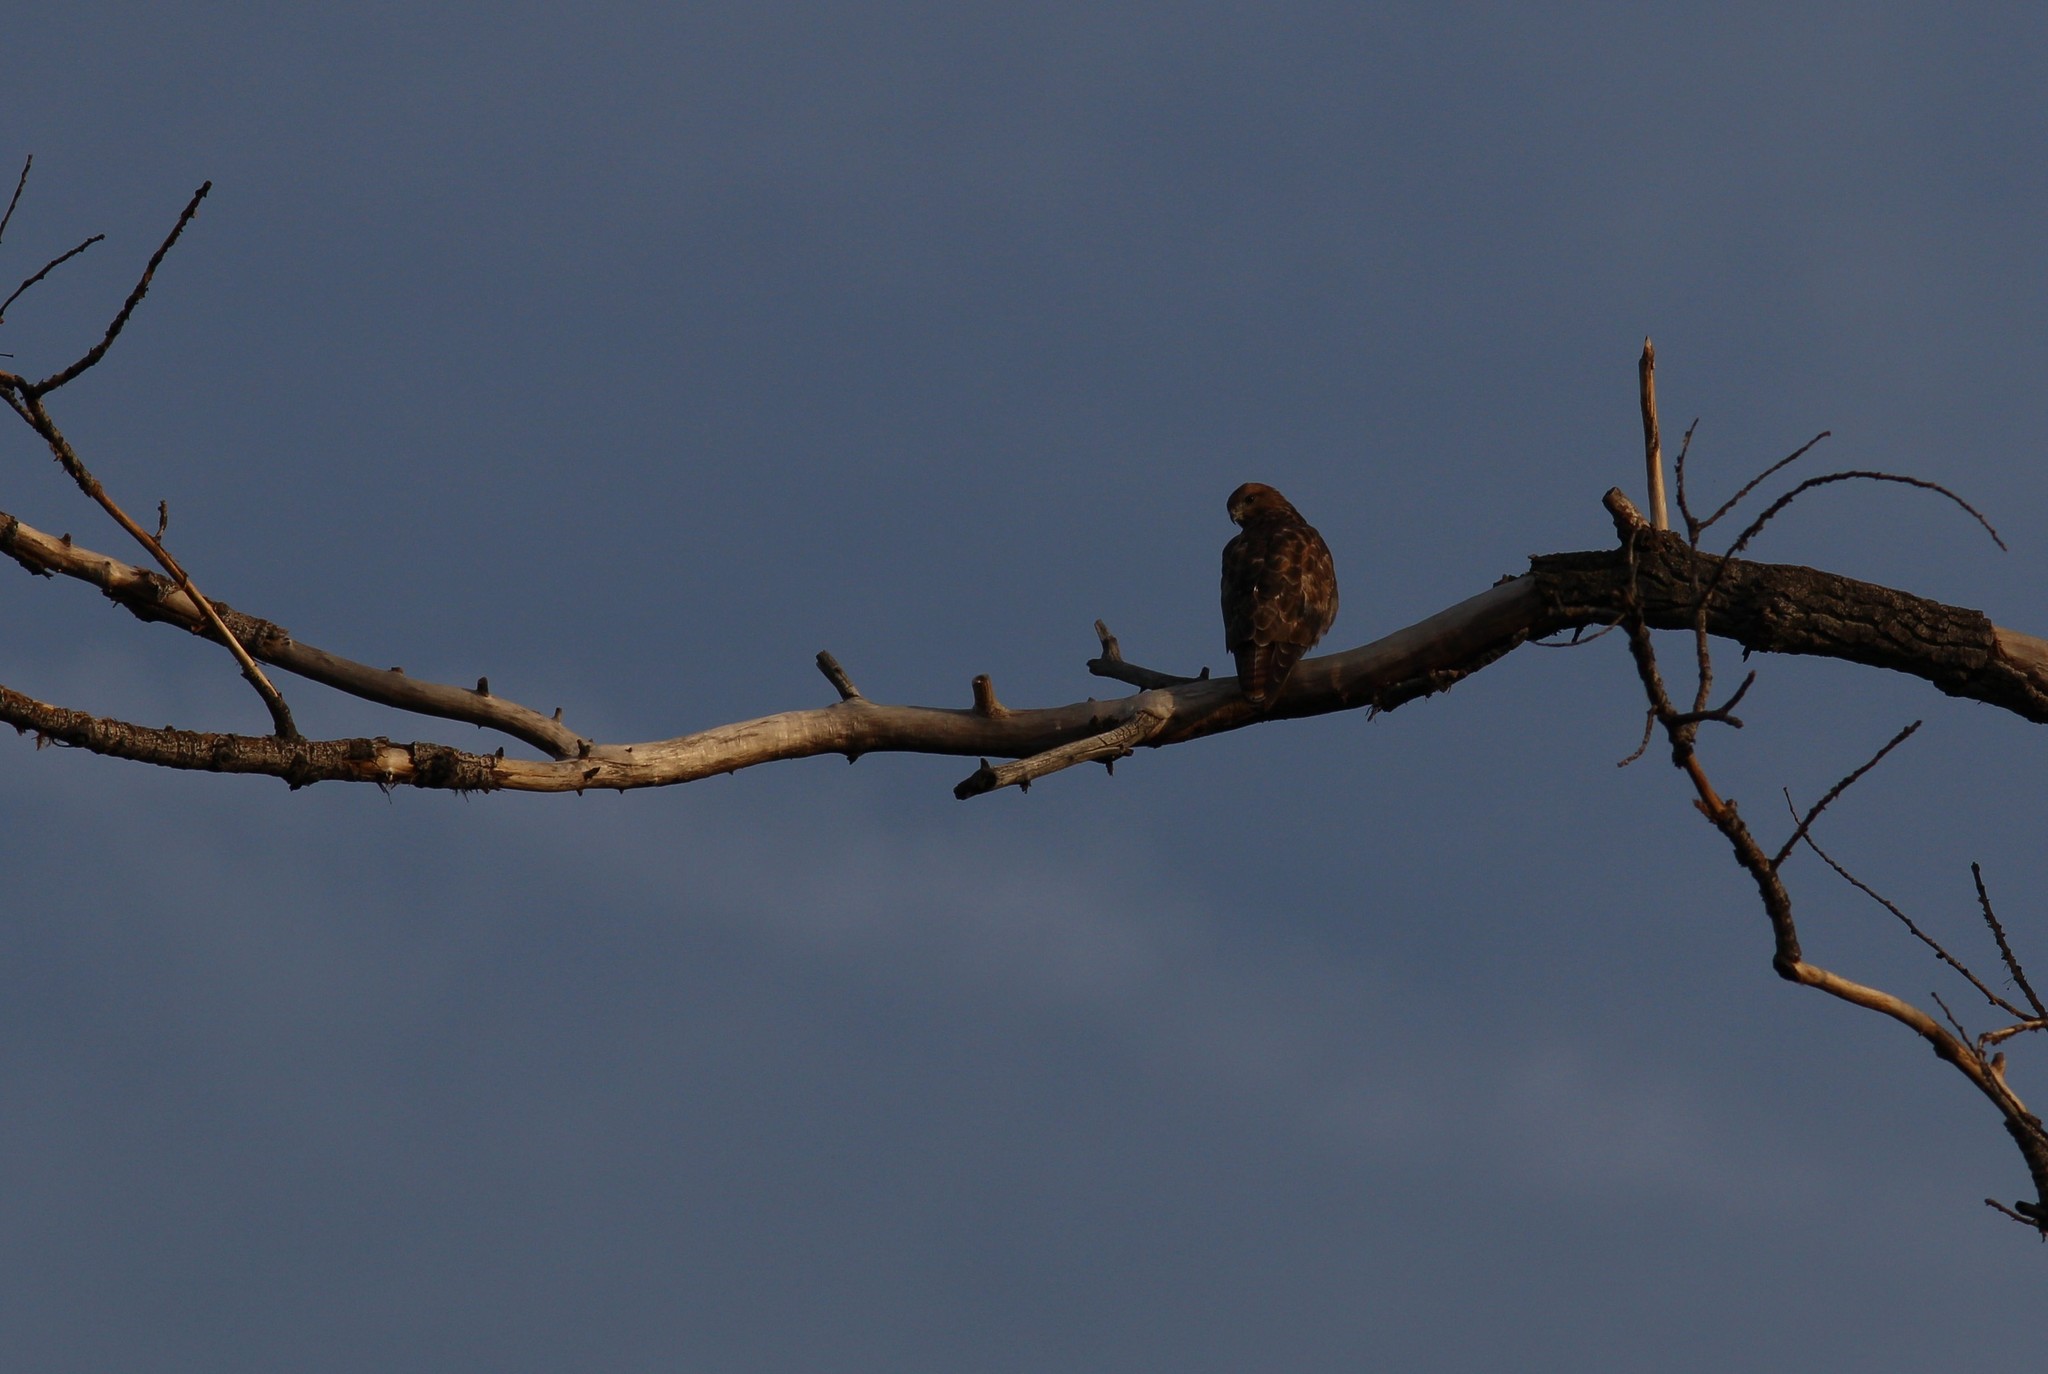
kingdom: Animalia
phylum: Chordata
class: Aves
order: Accipitriformes
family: Accipitridae
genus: Buteo
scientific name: Buteo buteo
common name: Common buzzard
